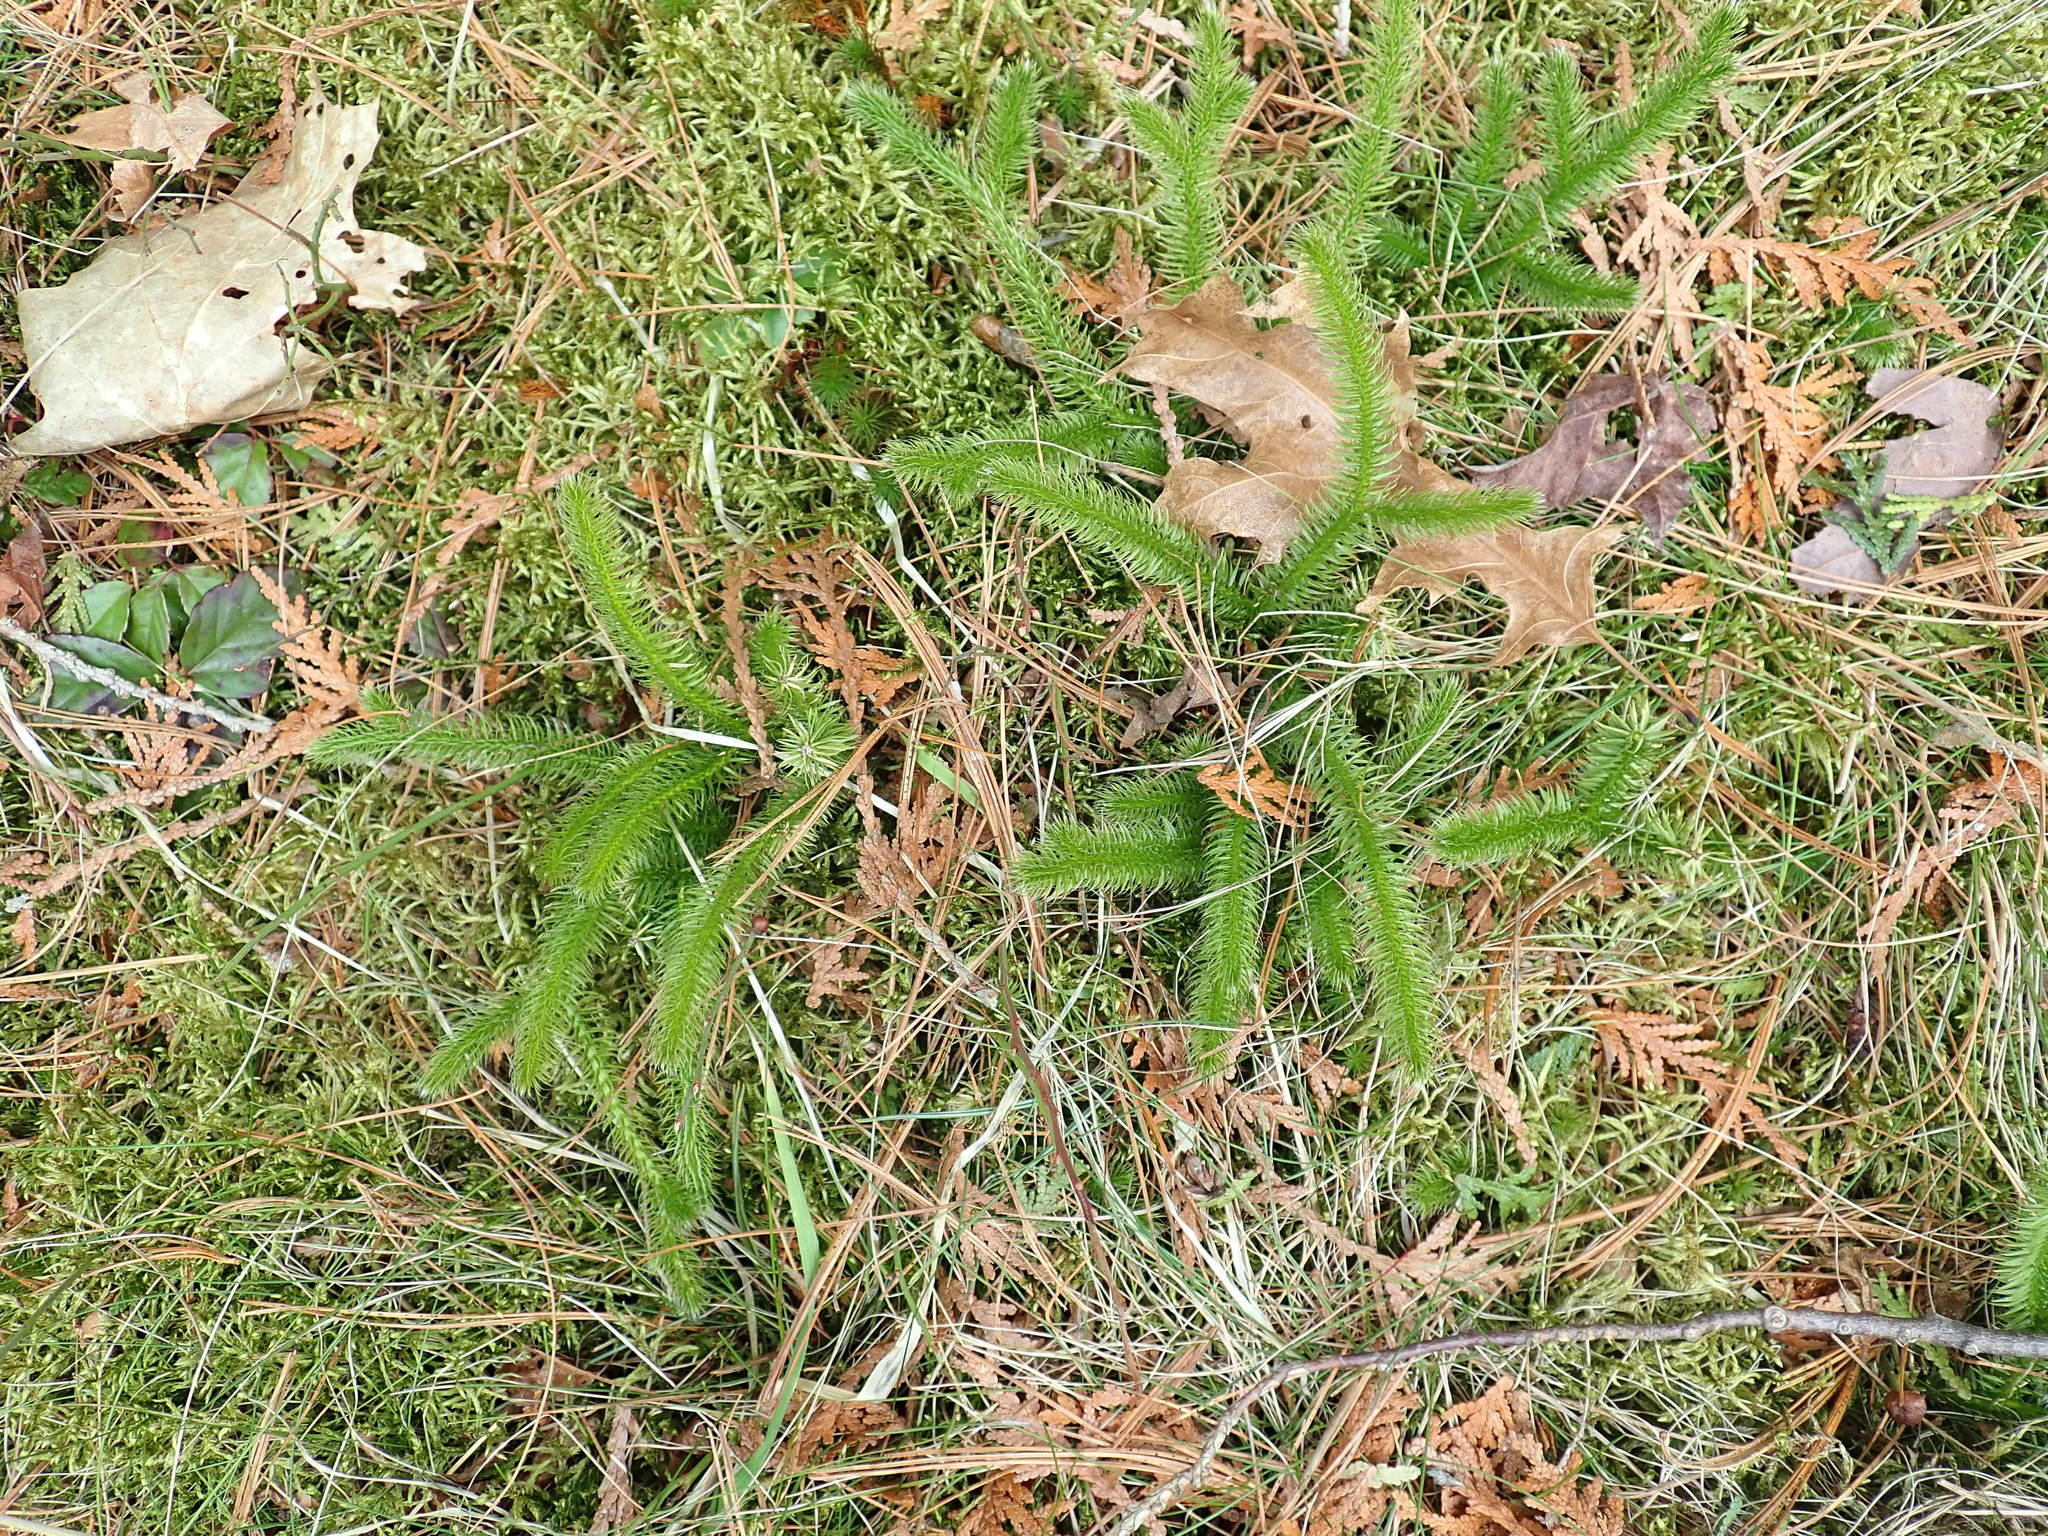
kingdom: Plantae
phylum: Tracheophyta
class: Lycopodiopsida
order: Lycopodiales
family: Lycopodiaceae
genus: Lycopodium
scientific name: Lycopodium clavatum
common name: Stag's-horn clubmoss
